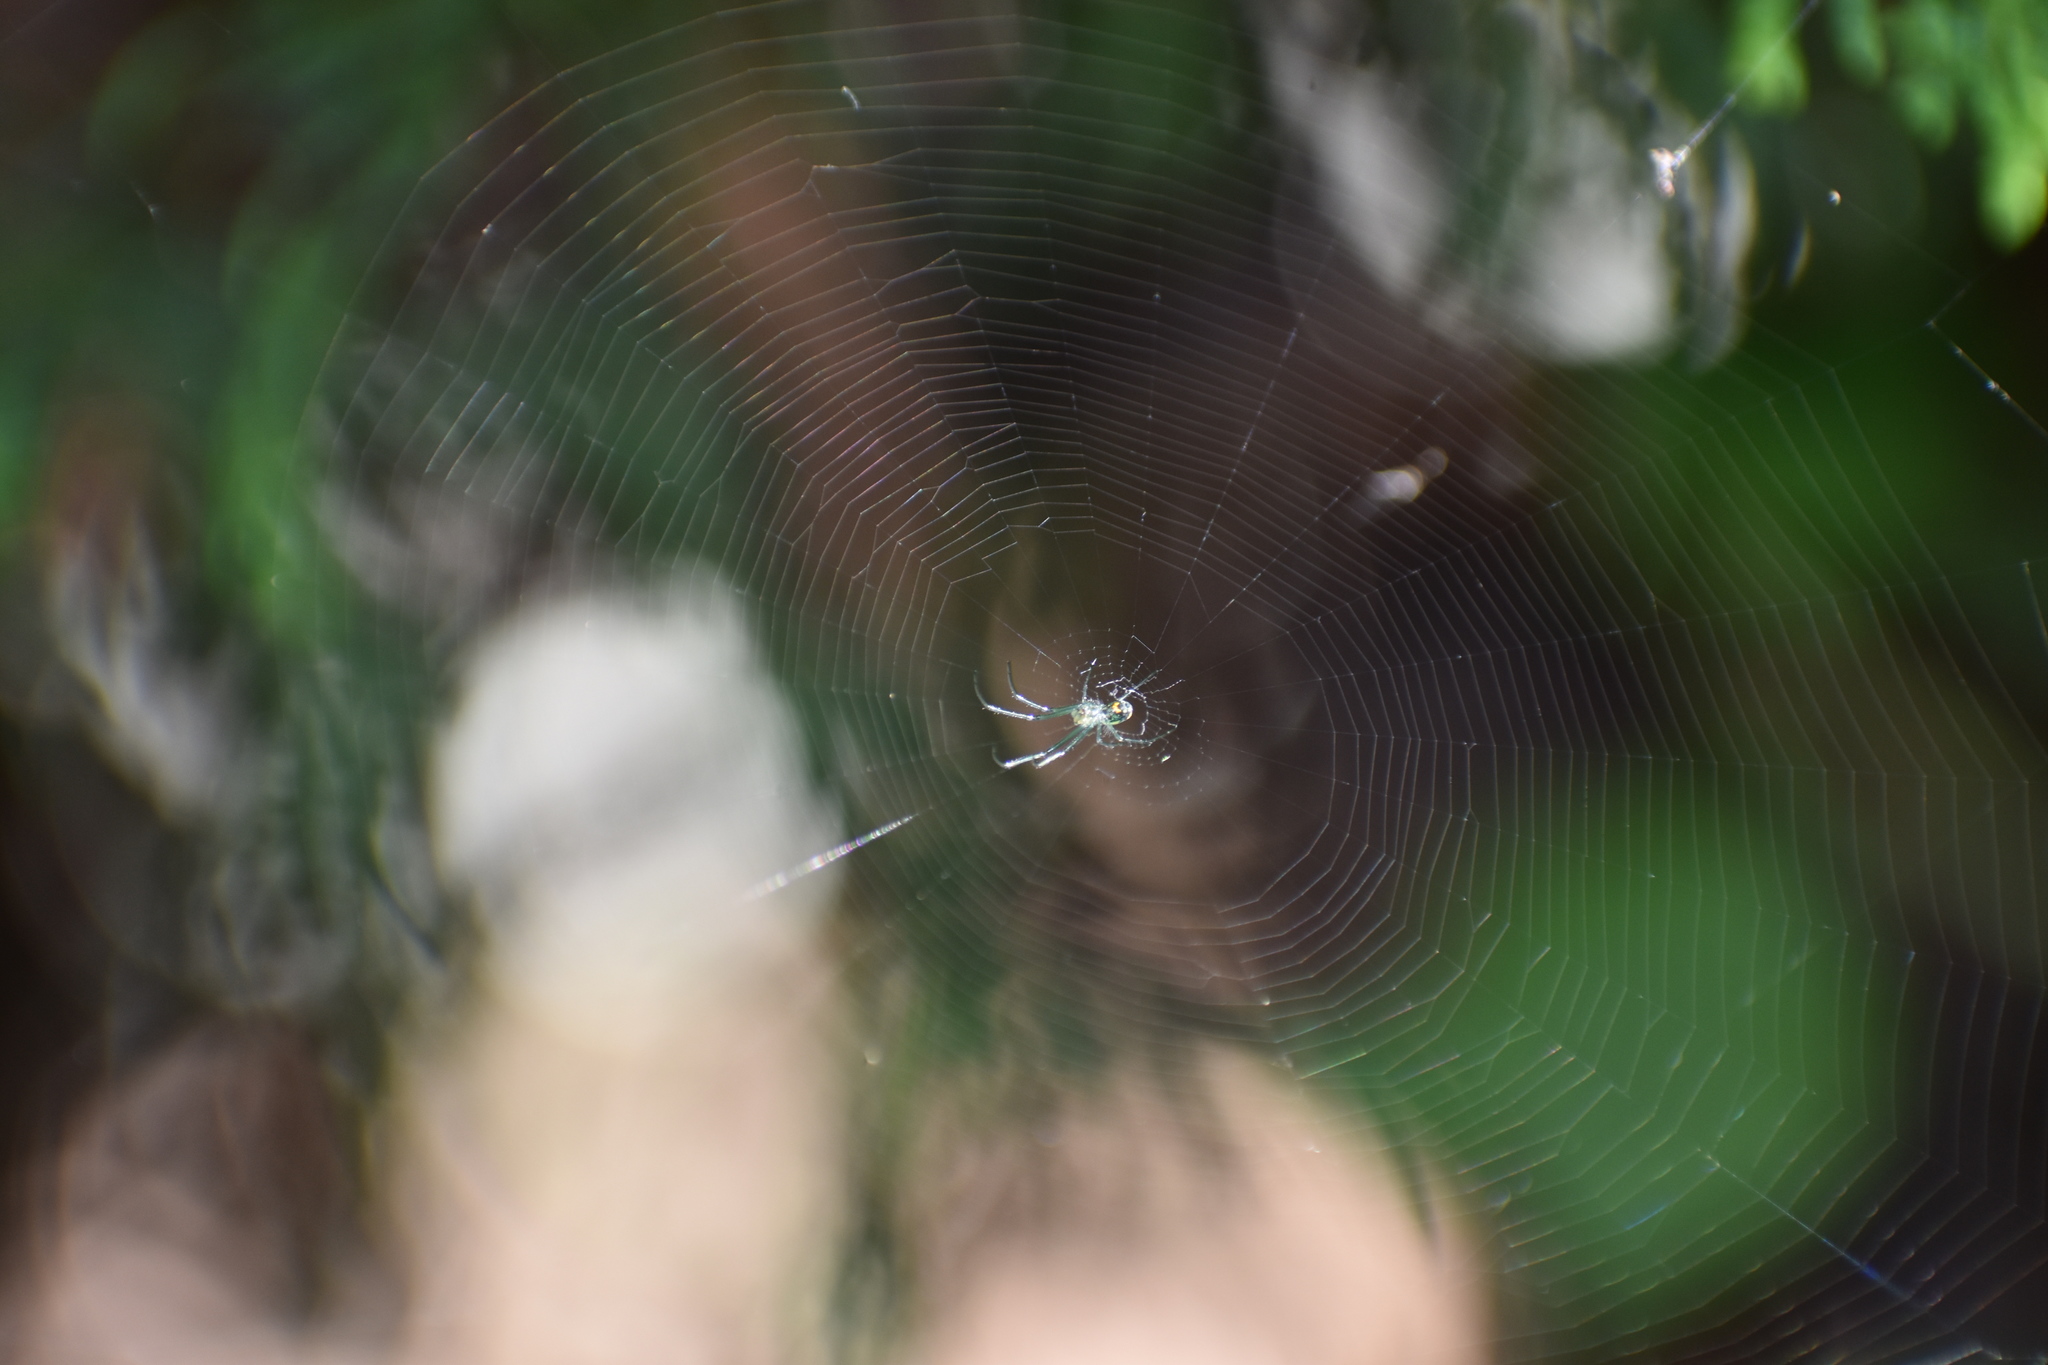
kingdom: Animalia
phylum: Arthropoda
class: Arachnida
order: Araneae
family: Tetragnathidae
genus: Leucauge
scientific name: Leucauge venusta
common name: Longjawed orb weavers
